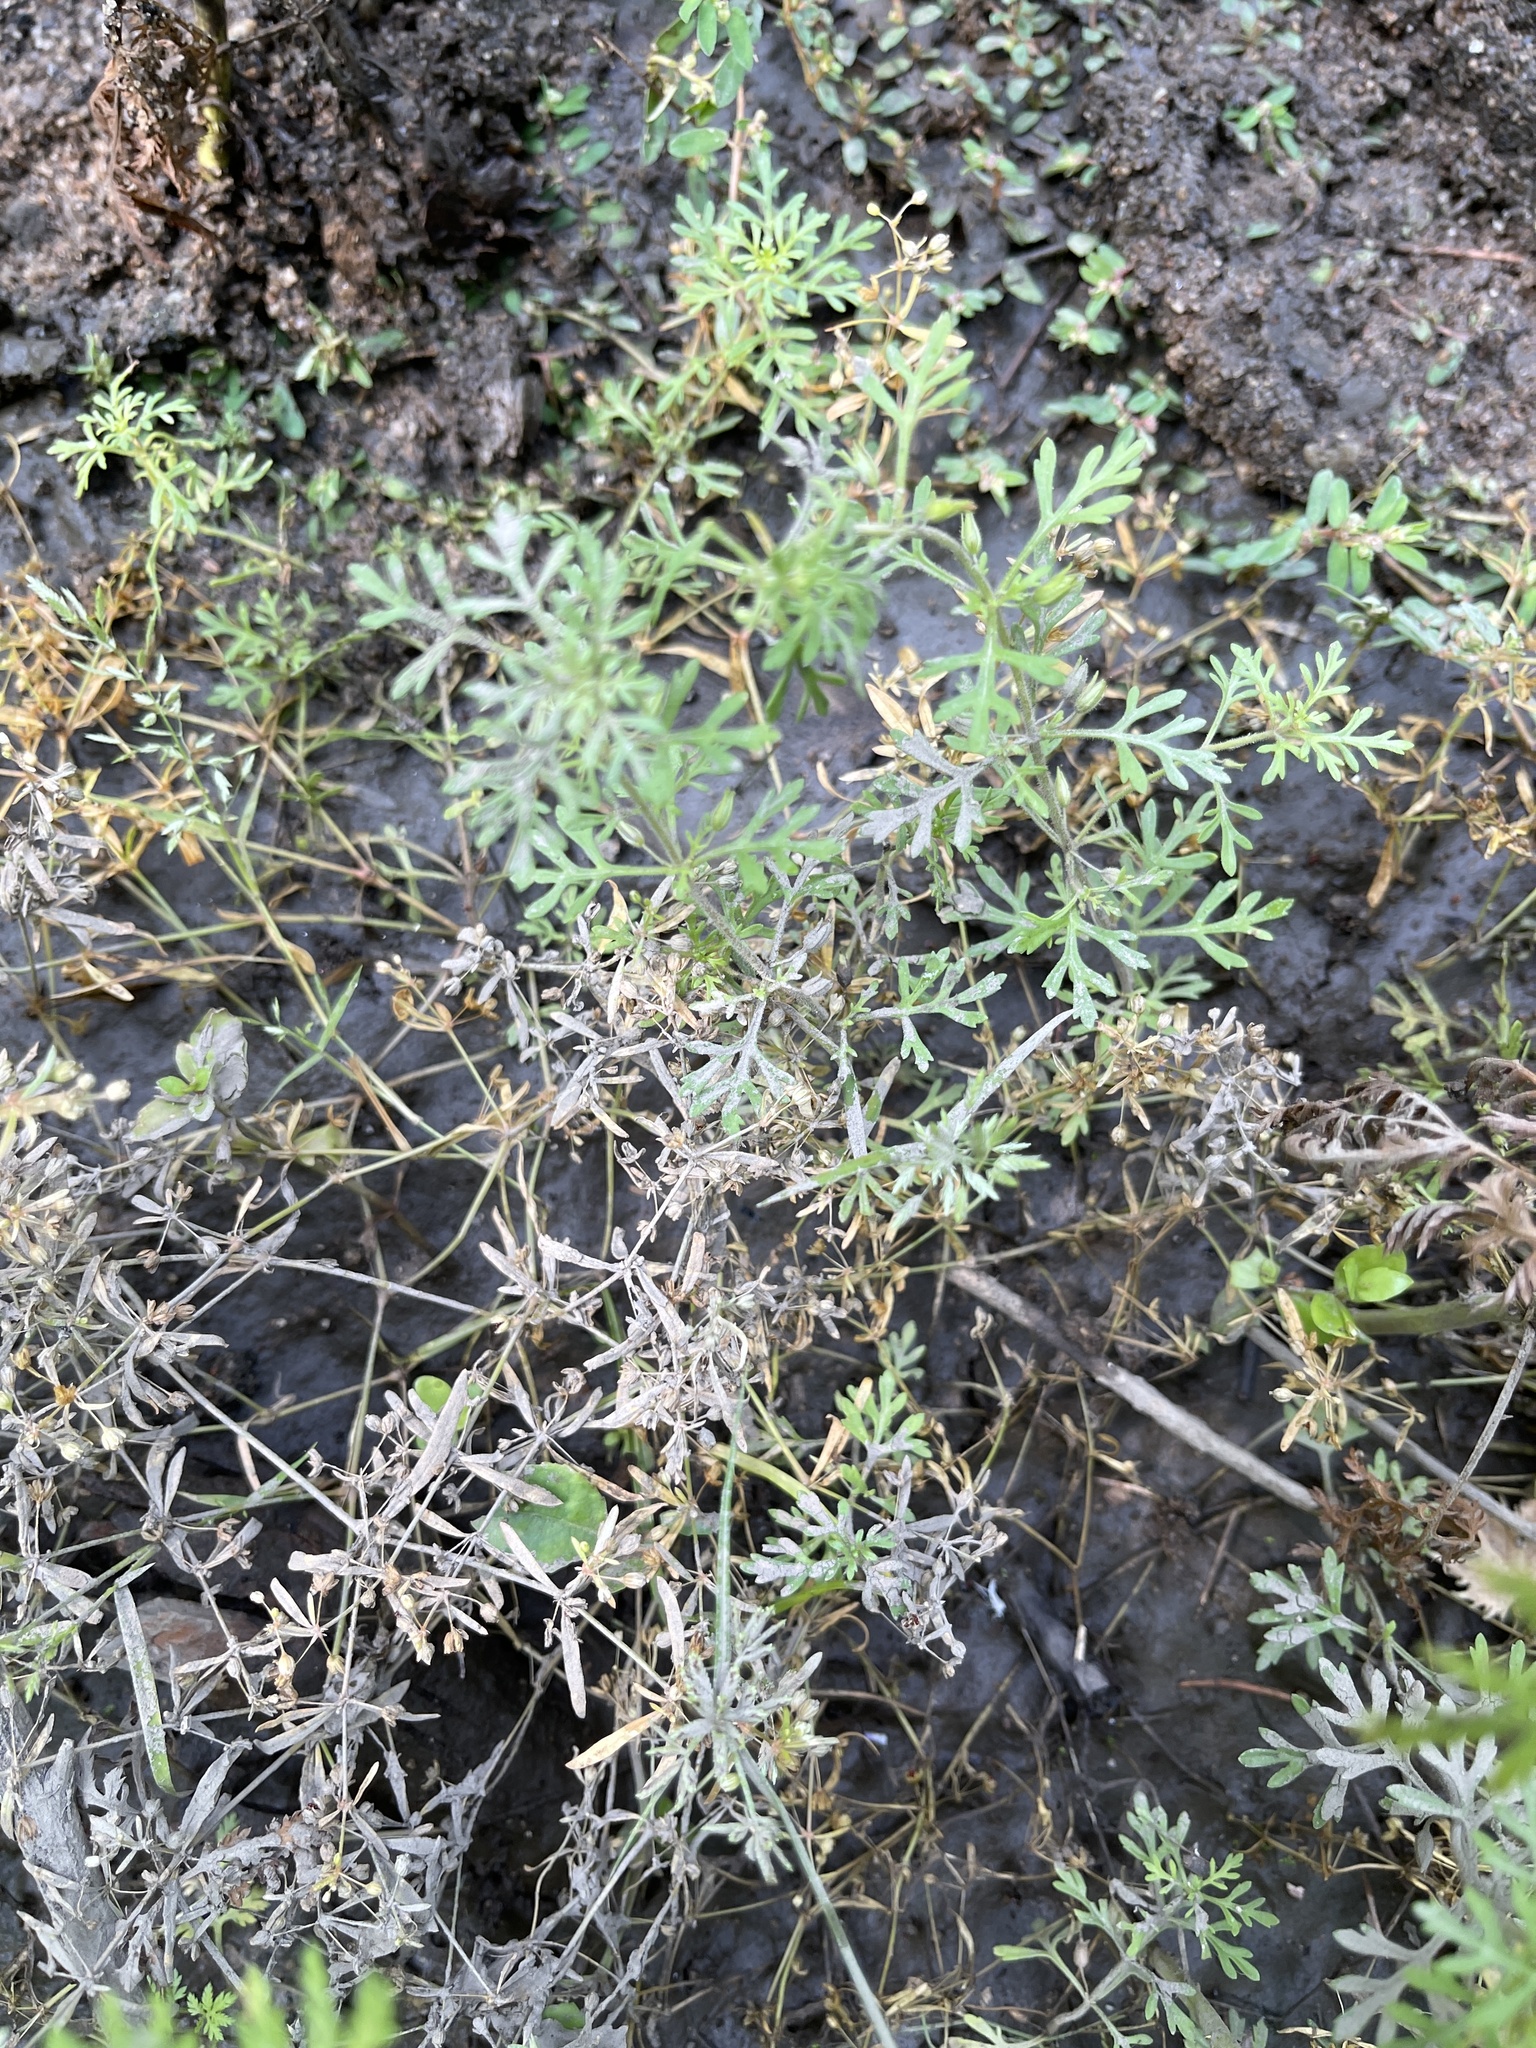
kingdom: Plantae
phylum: Tracheophyta
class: Magnoliopsida
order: Lamiales
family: Plantaginaceae
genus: Leucospora
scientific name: Leucospora multifida
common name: Narrow-leaf paleseed
